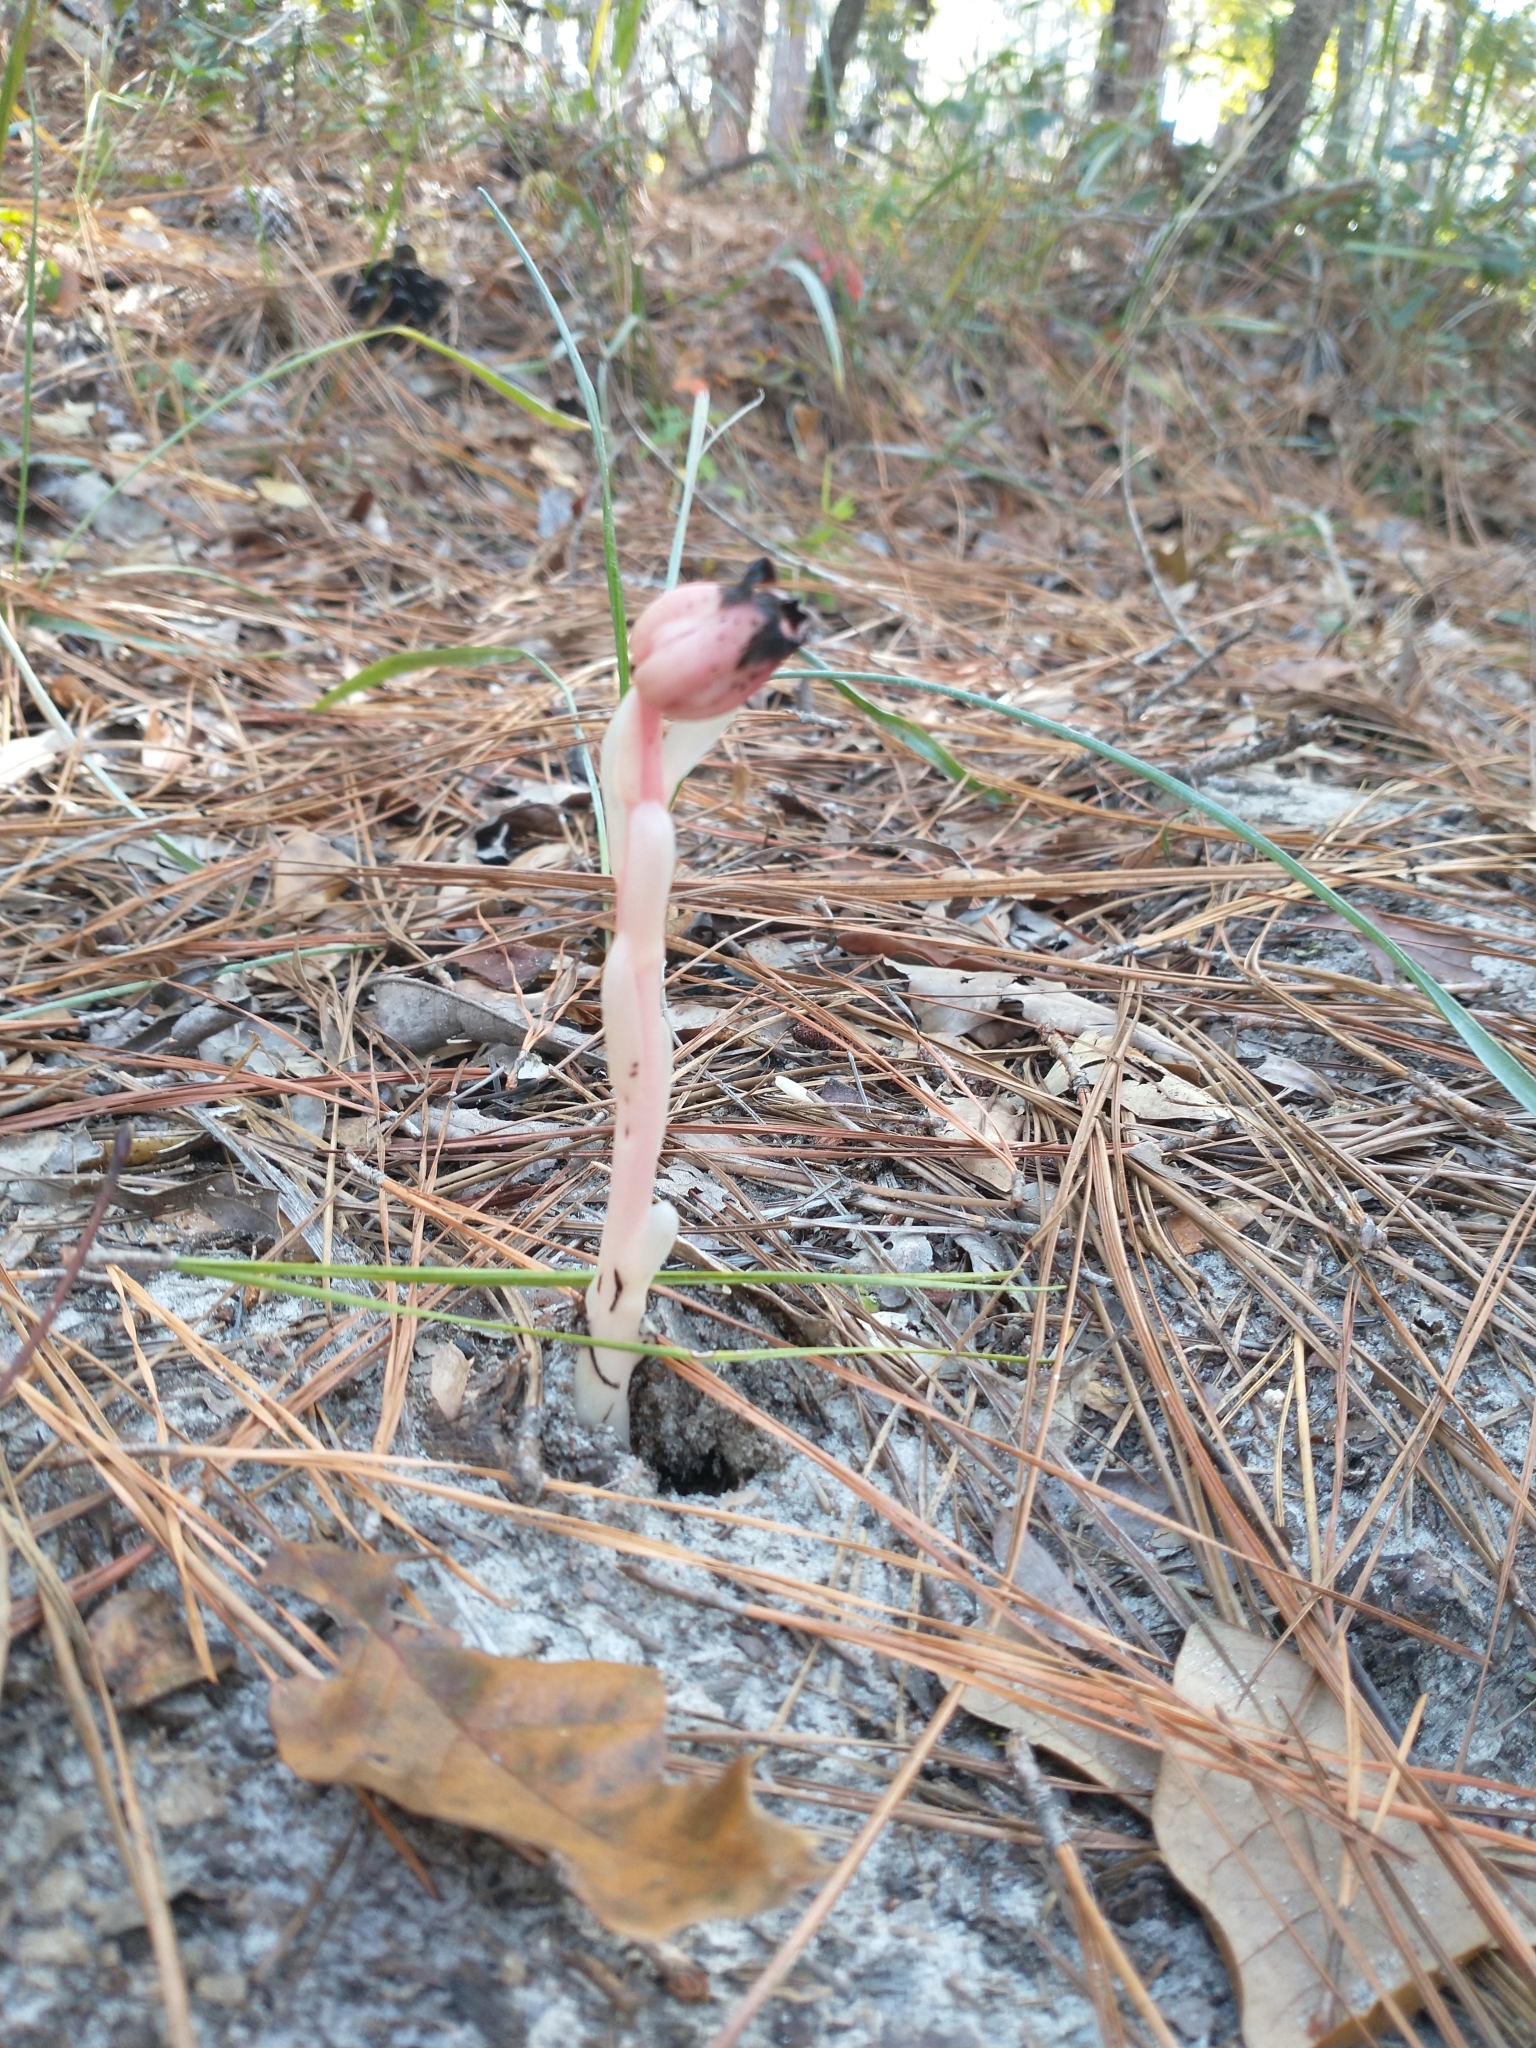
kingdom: Plantae
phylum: Tracheophyta
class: Magnoliopsida
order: Ericales
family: Ericaceae
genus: Monotropa
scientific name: Monotropa uniflora
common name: Convulsion root
